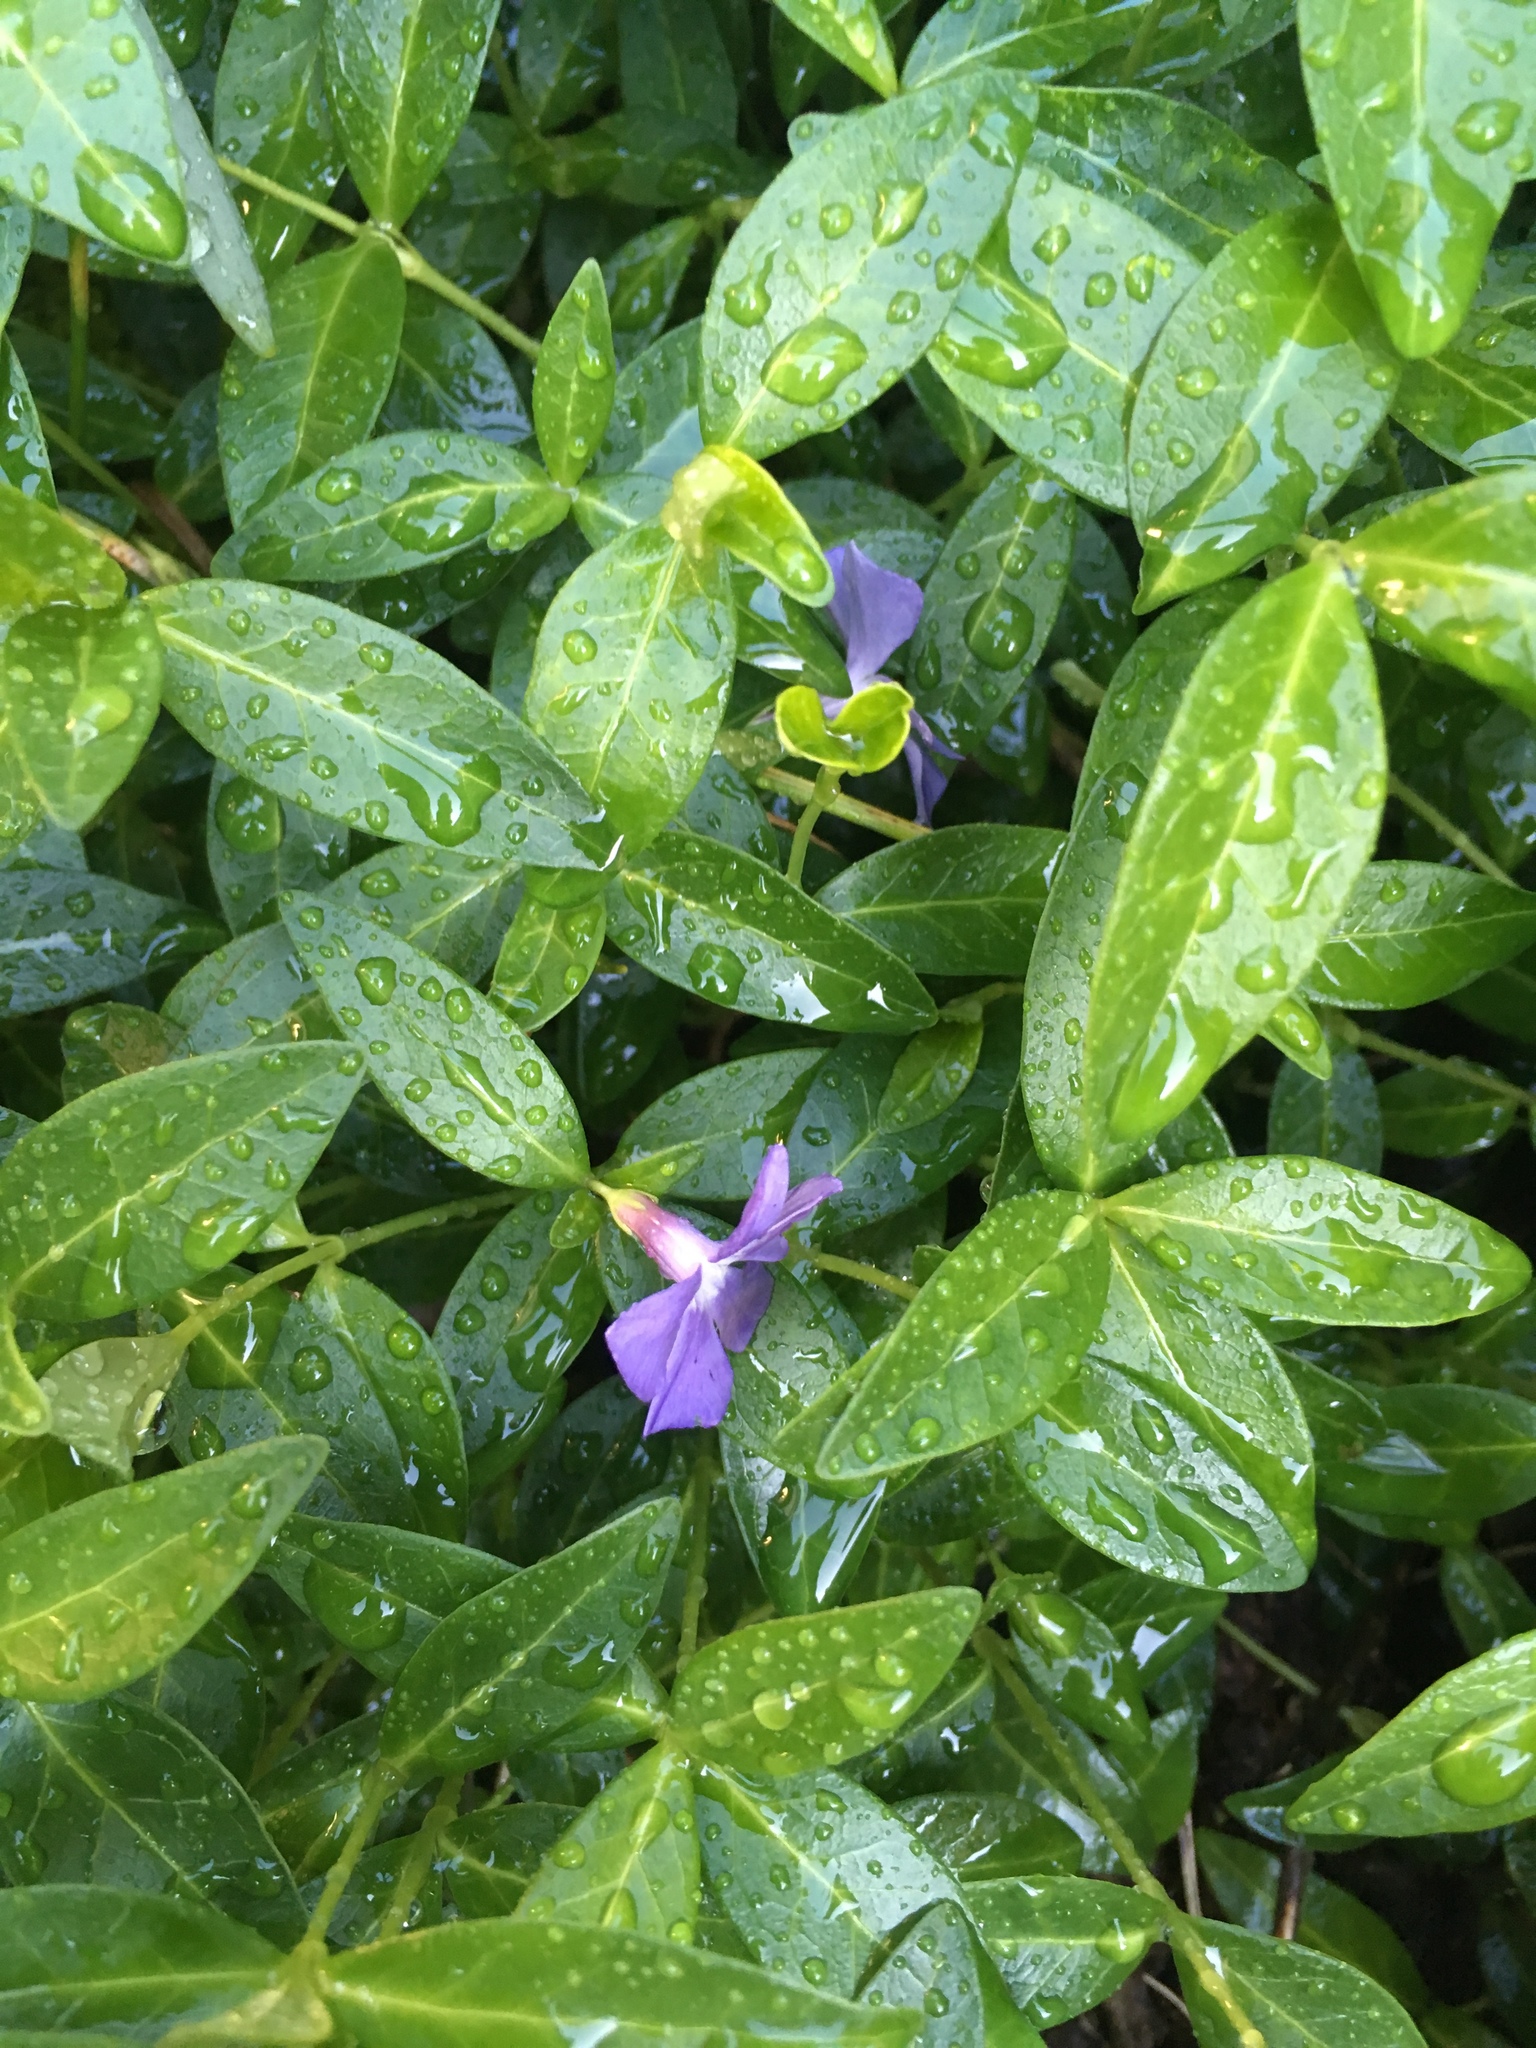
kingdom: Plantae
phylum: Tracheophyta
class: Magnoliopsida
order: Gentianales
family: Apocynaceae
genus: Vinca
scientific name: Vinca minor
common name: Lesser periwinkle
